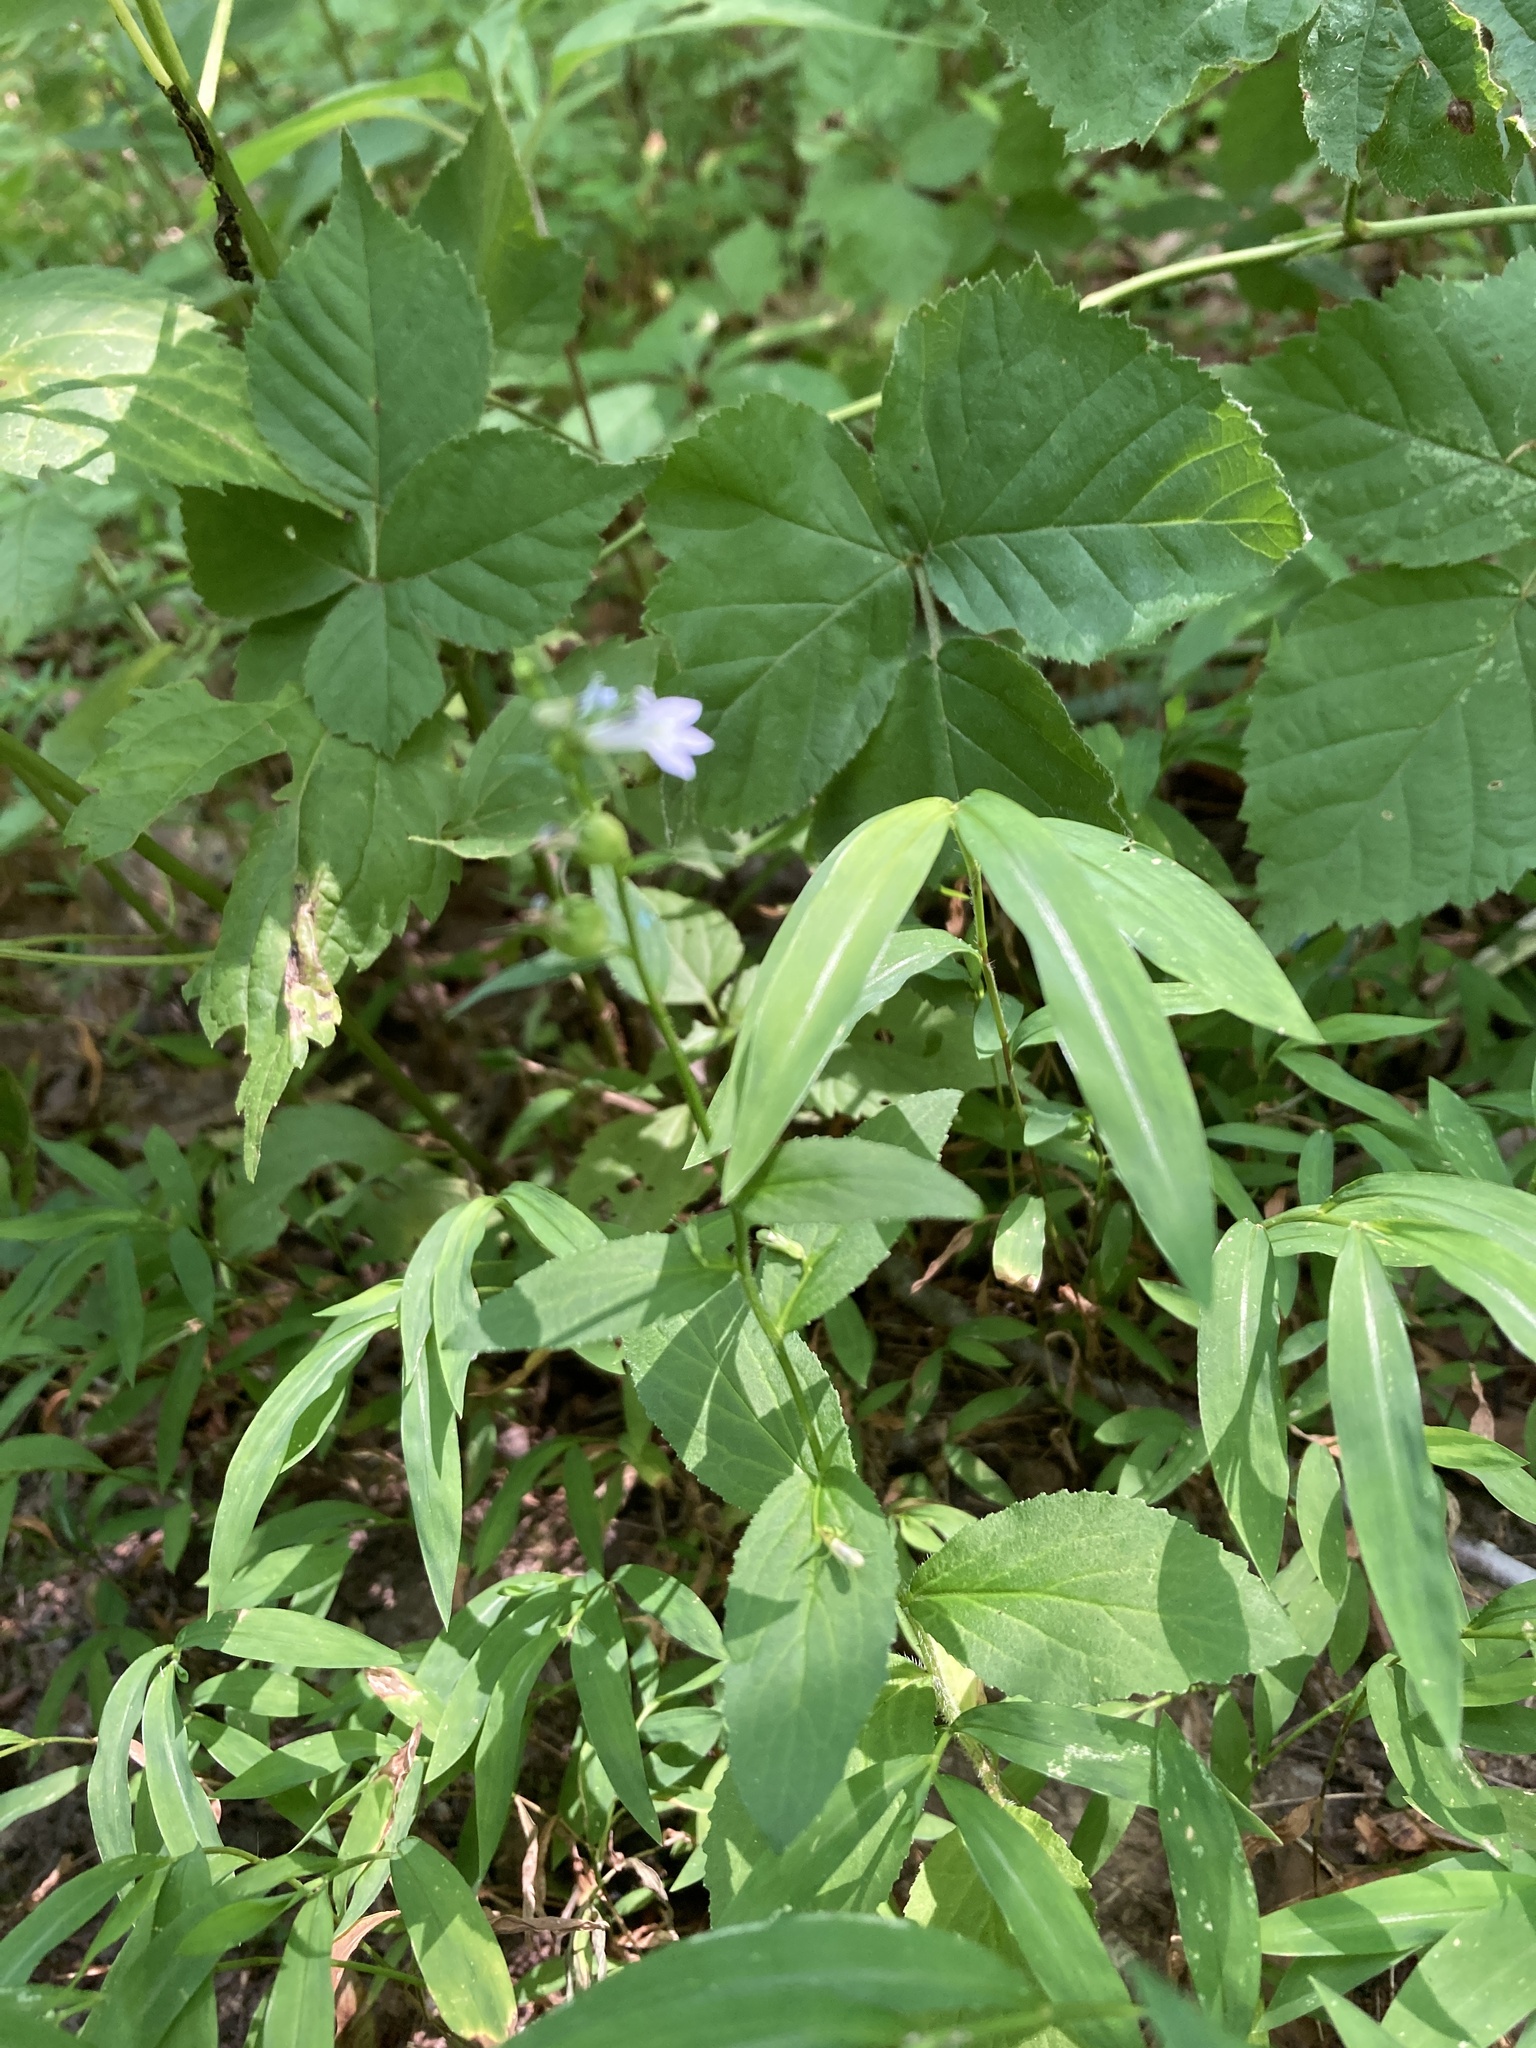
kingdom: Plantae
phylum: Tracheophyta
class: Magnoliopsida
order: Asterales
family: Campanulaceae
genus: Lobelia
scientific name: Lobelia inflata
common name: Indian tobacco
